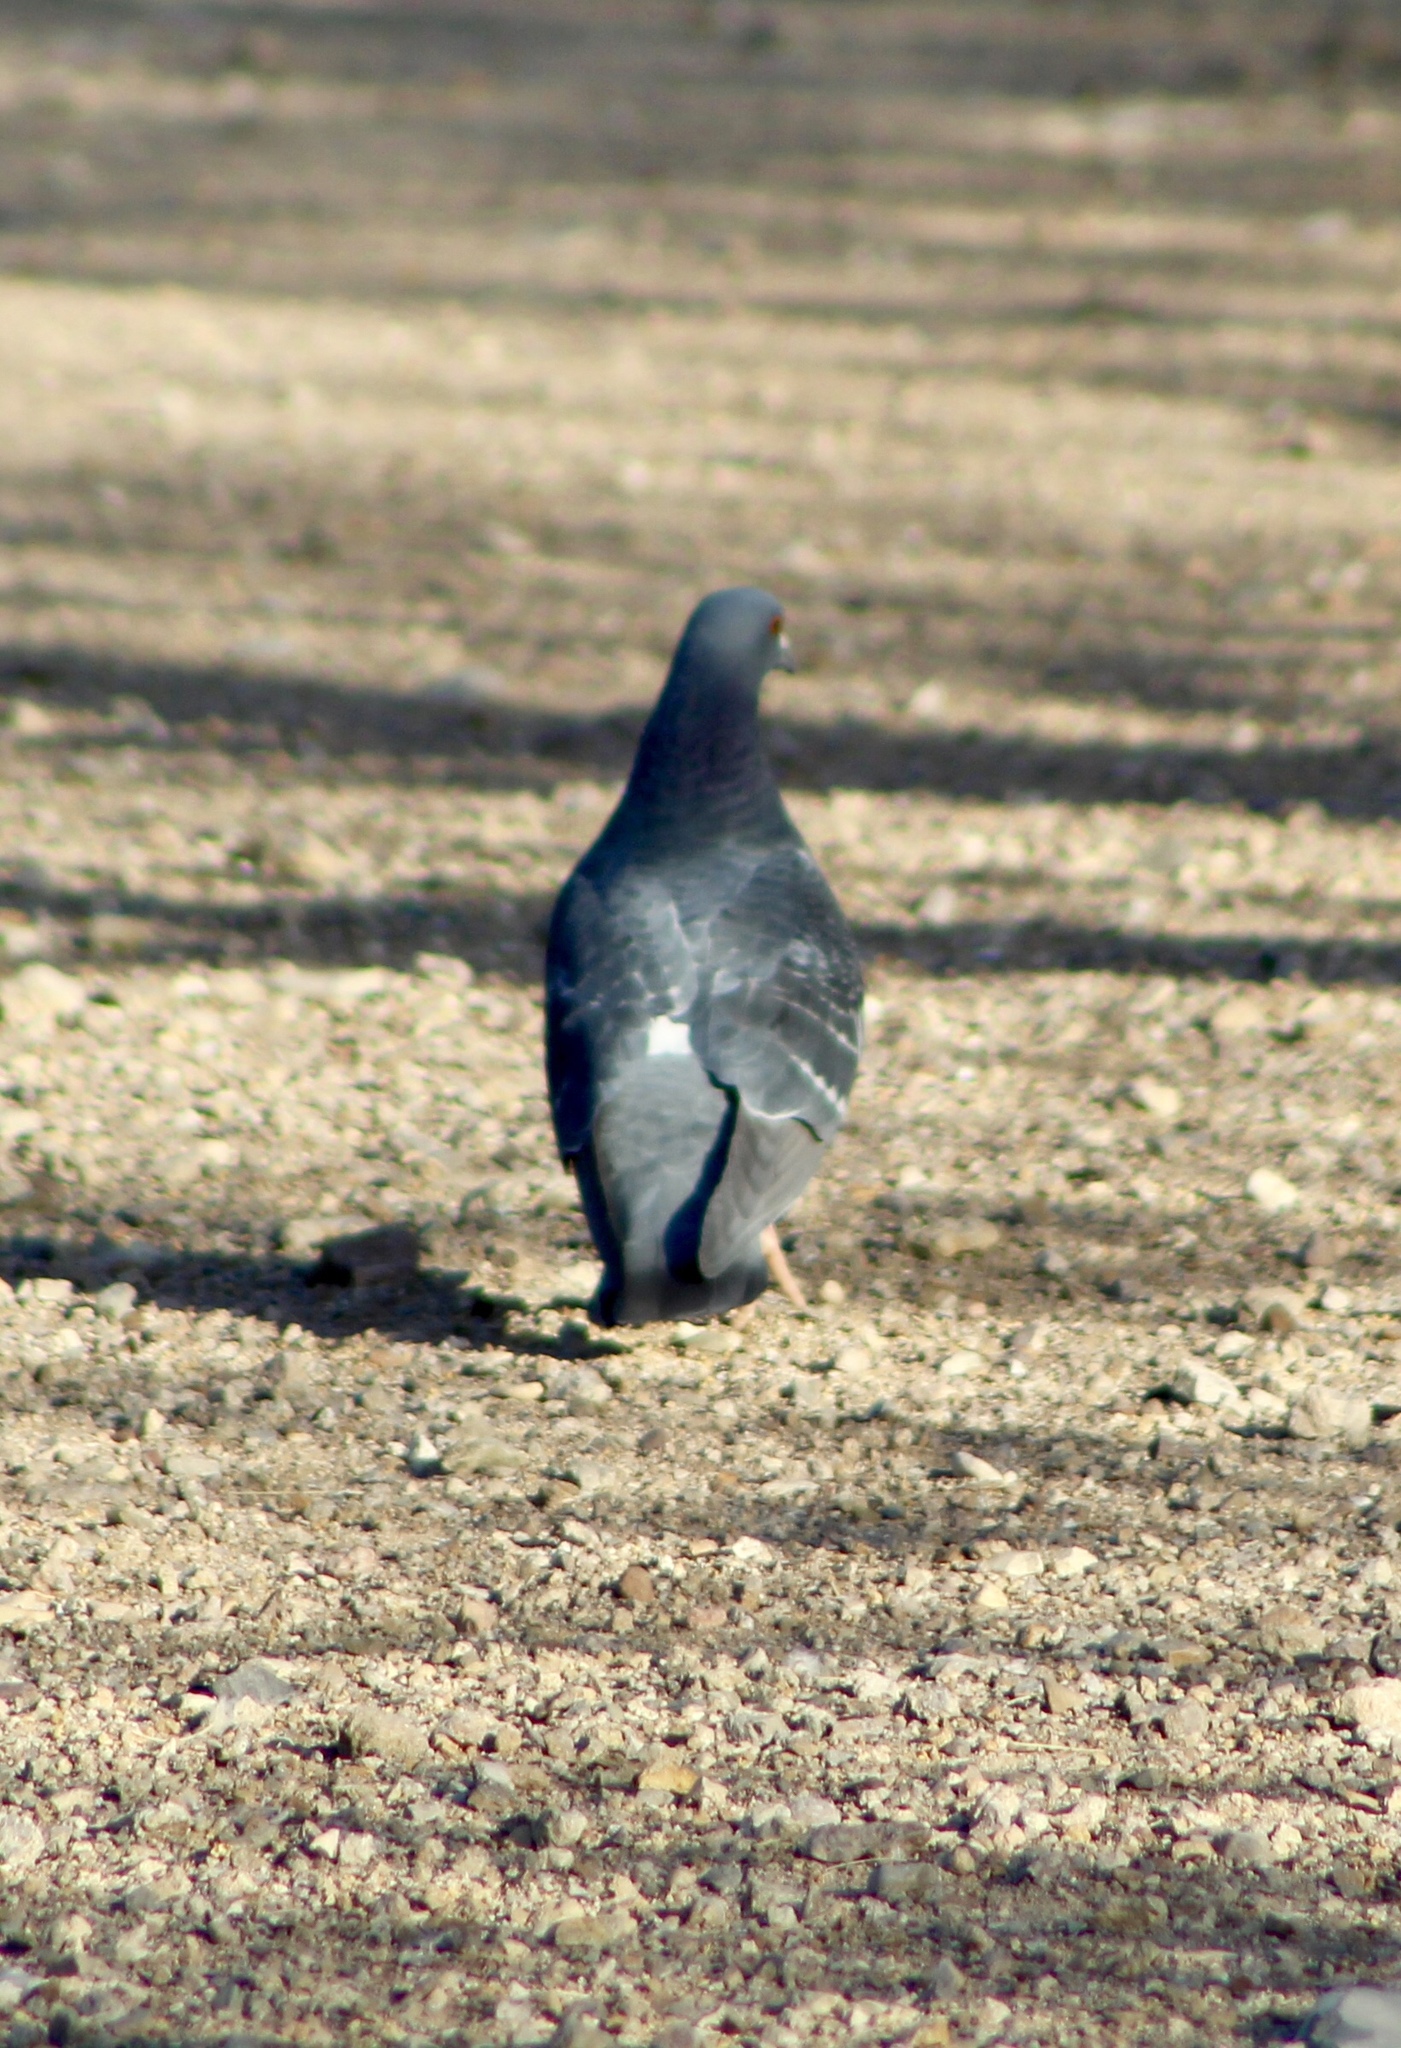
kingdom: Animalia
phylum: Chordata
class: Aves
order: Columbiformes
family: Columbidae
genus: Columba
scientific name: Columba livia
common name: Rock pigeon
